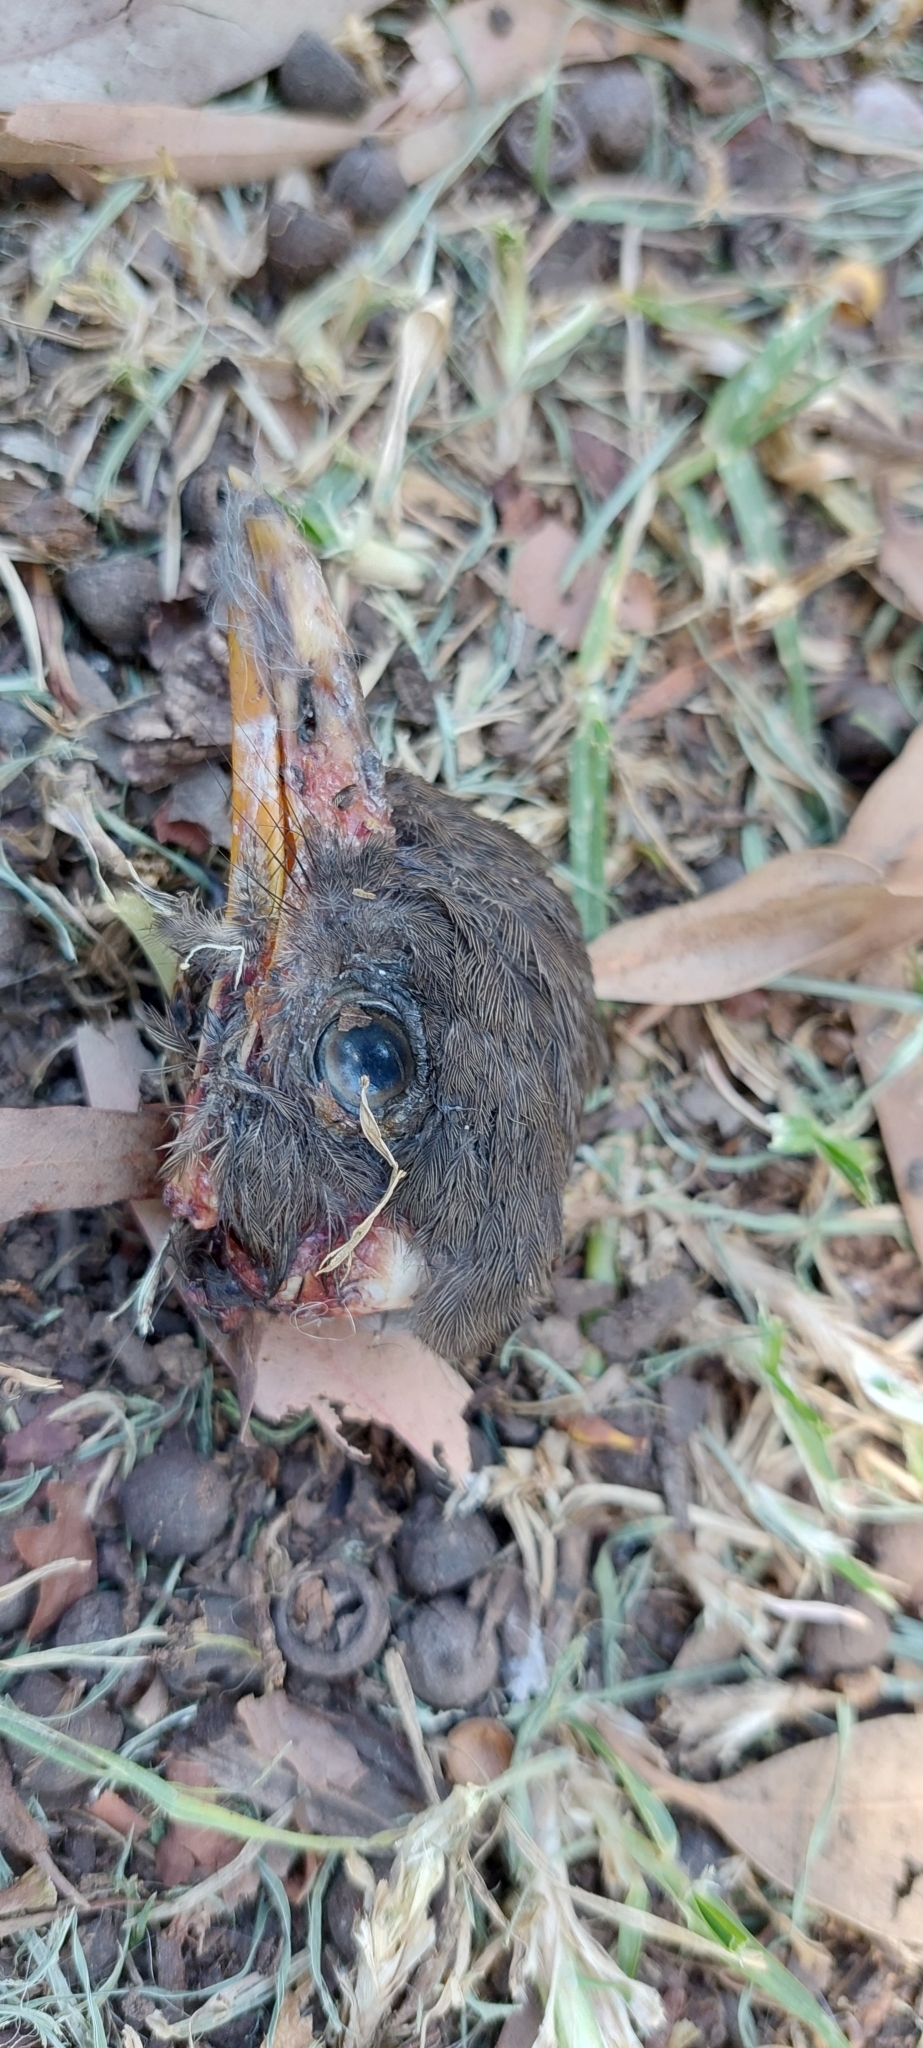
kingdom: Animalia
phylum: Chordata
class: Aves
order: Passeriformes
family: Turdidae
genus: Turdus
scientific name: Turdus fuscater
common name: Great thrush
